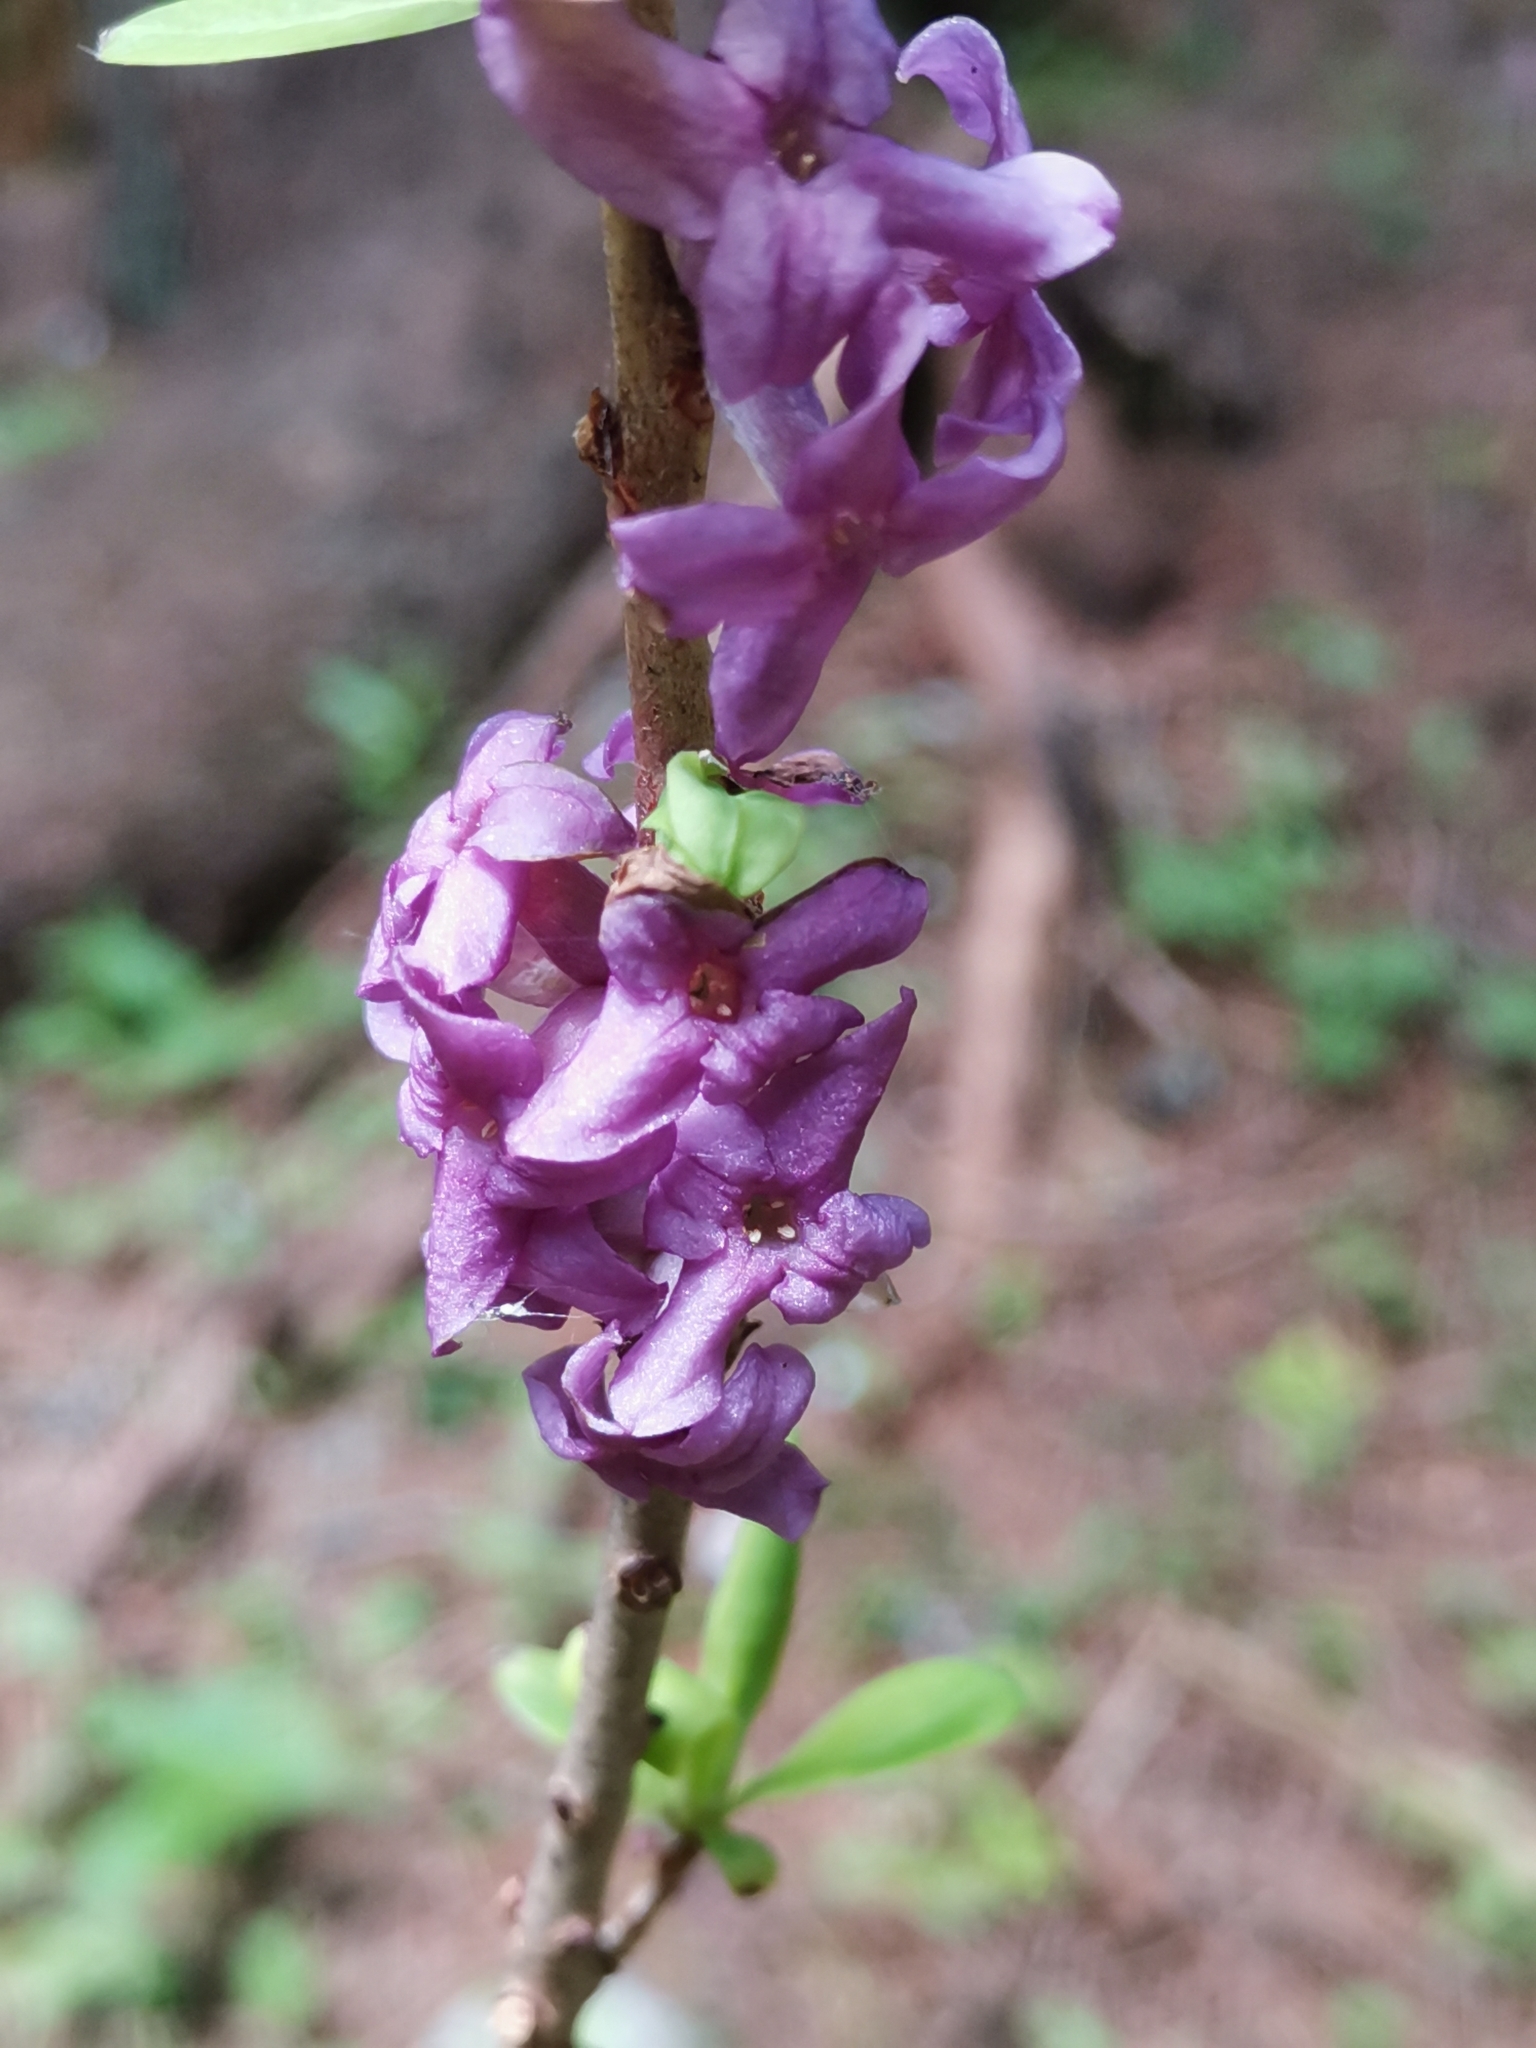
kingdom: Plantae
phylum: Tracheophyta
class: Magnoliopsida
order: Malvales
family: Thymelaeaceae
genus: Daphne
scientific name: Daphne mezereum
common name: Mezereon
